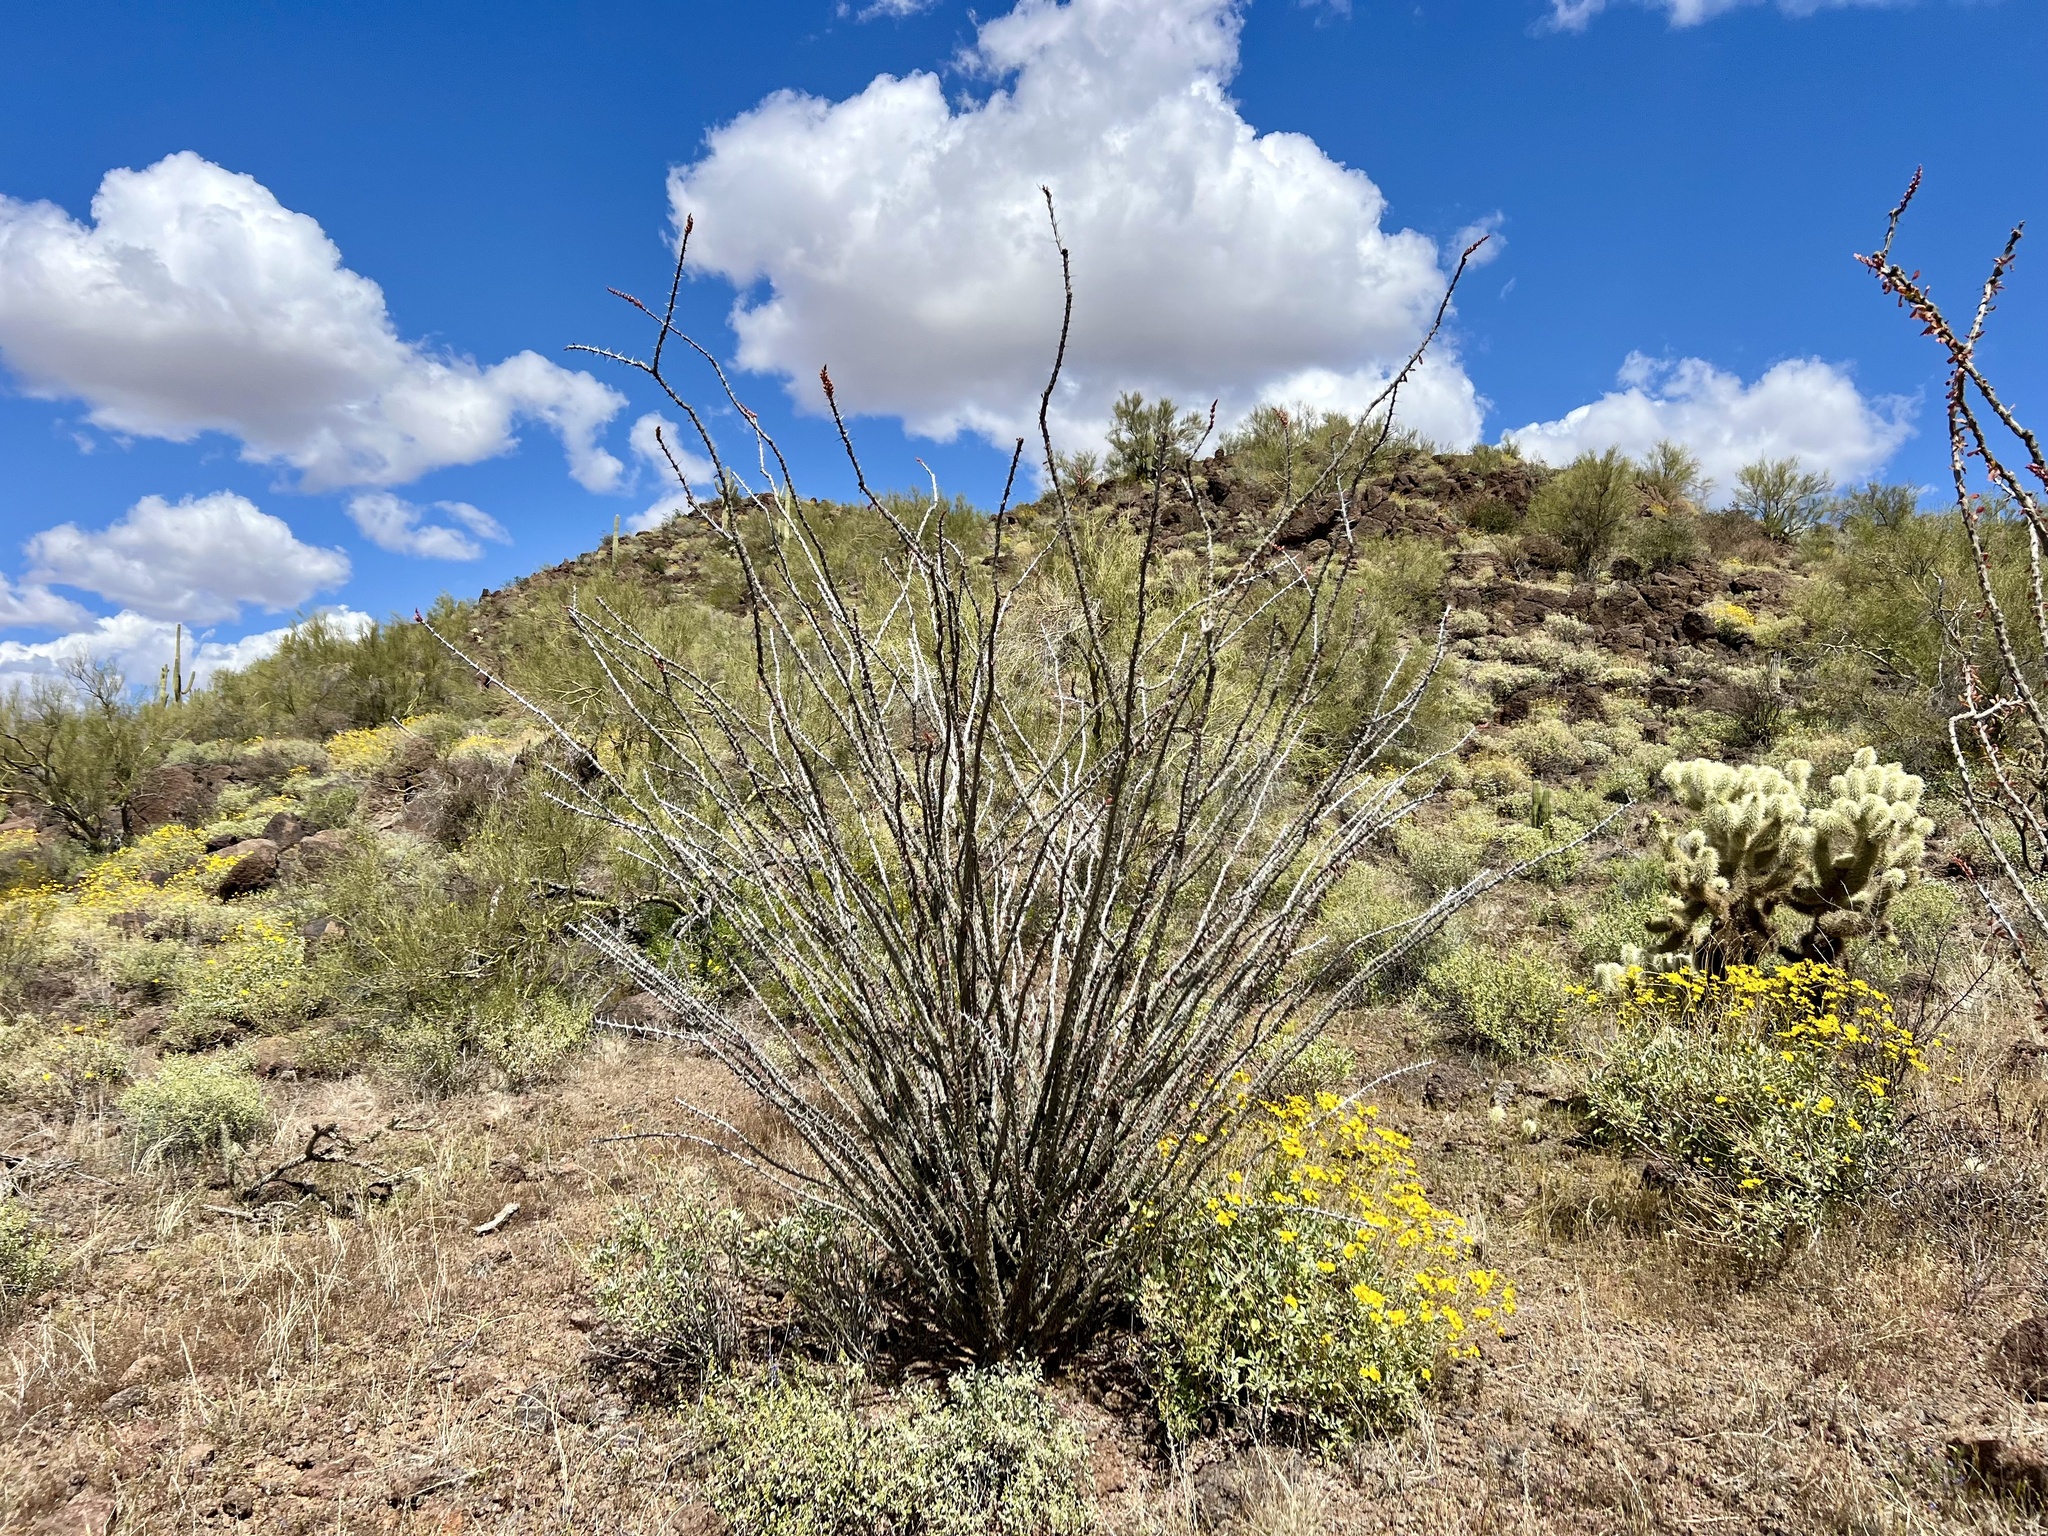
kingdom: Plantae
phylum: Tracheophyta
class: Magnoliopsida
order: Ericales
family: Fouquieriaceae
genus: Fouquieria
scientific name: Fouquieria splendens
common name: Vine-cactus
